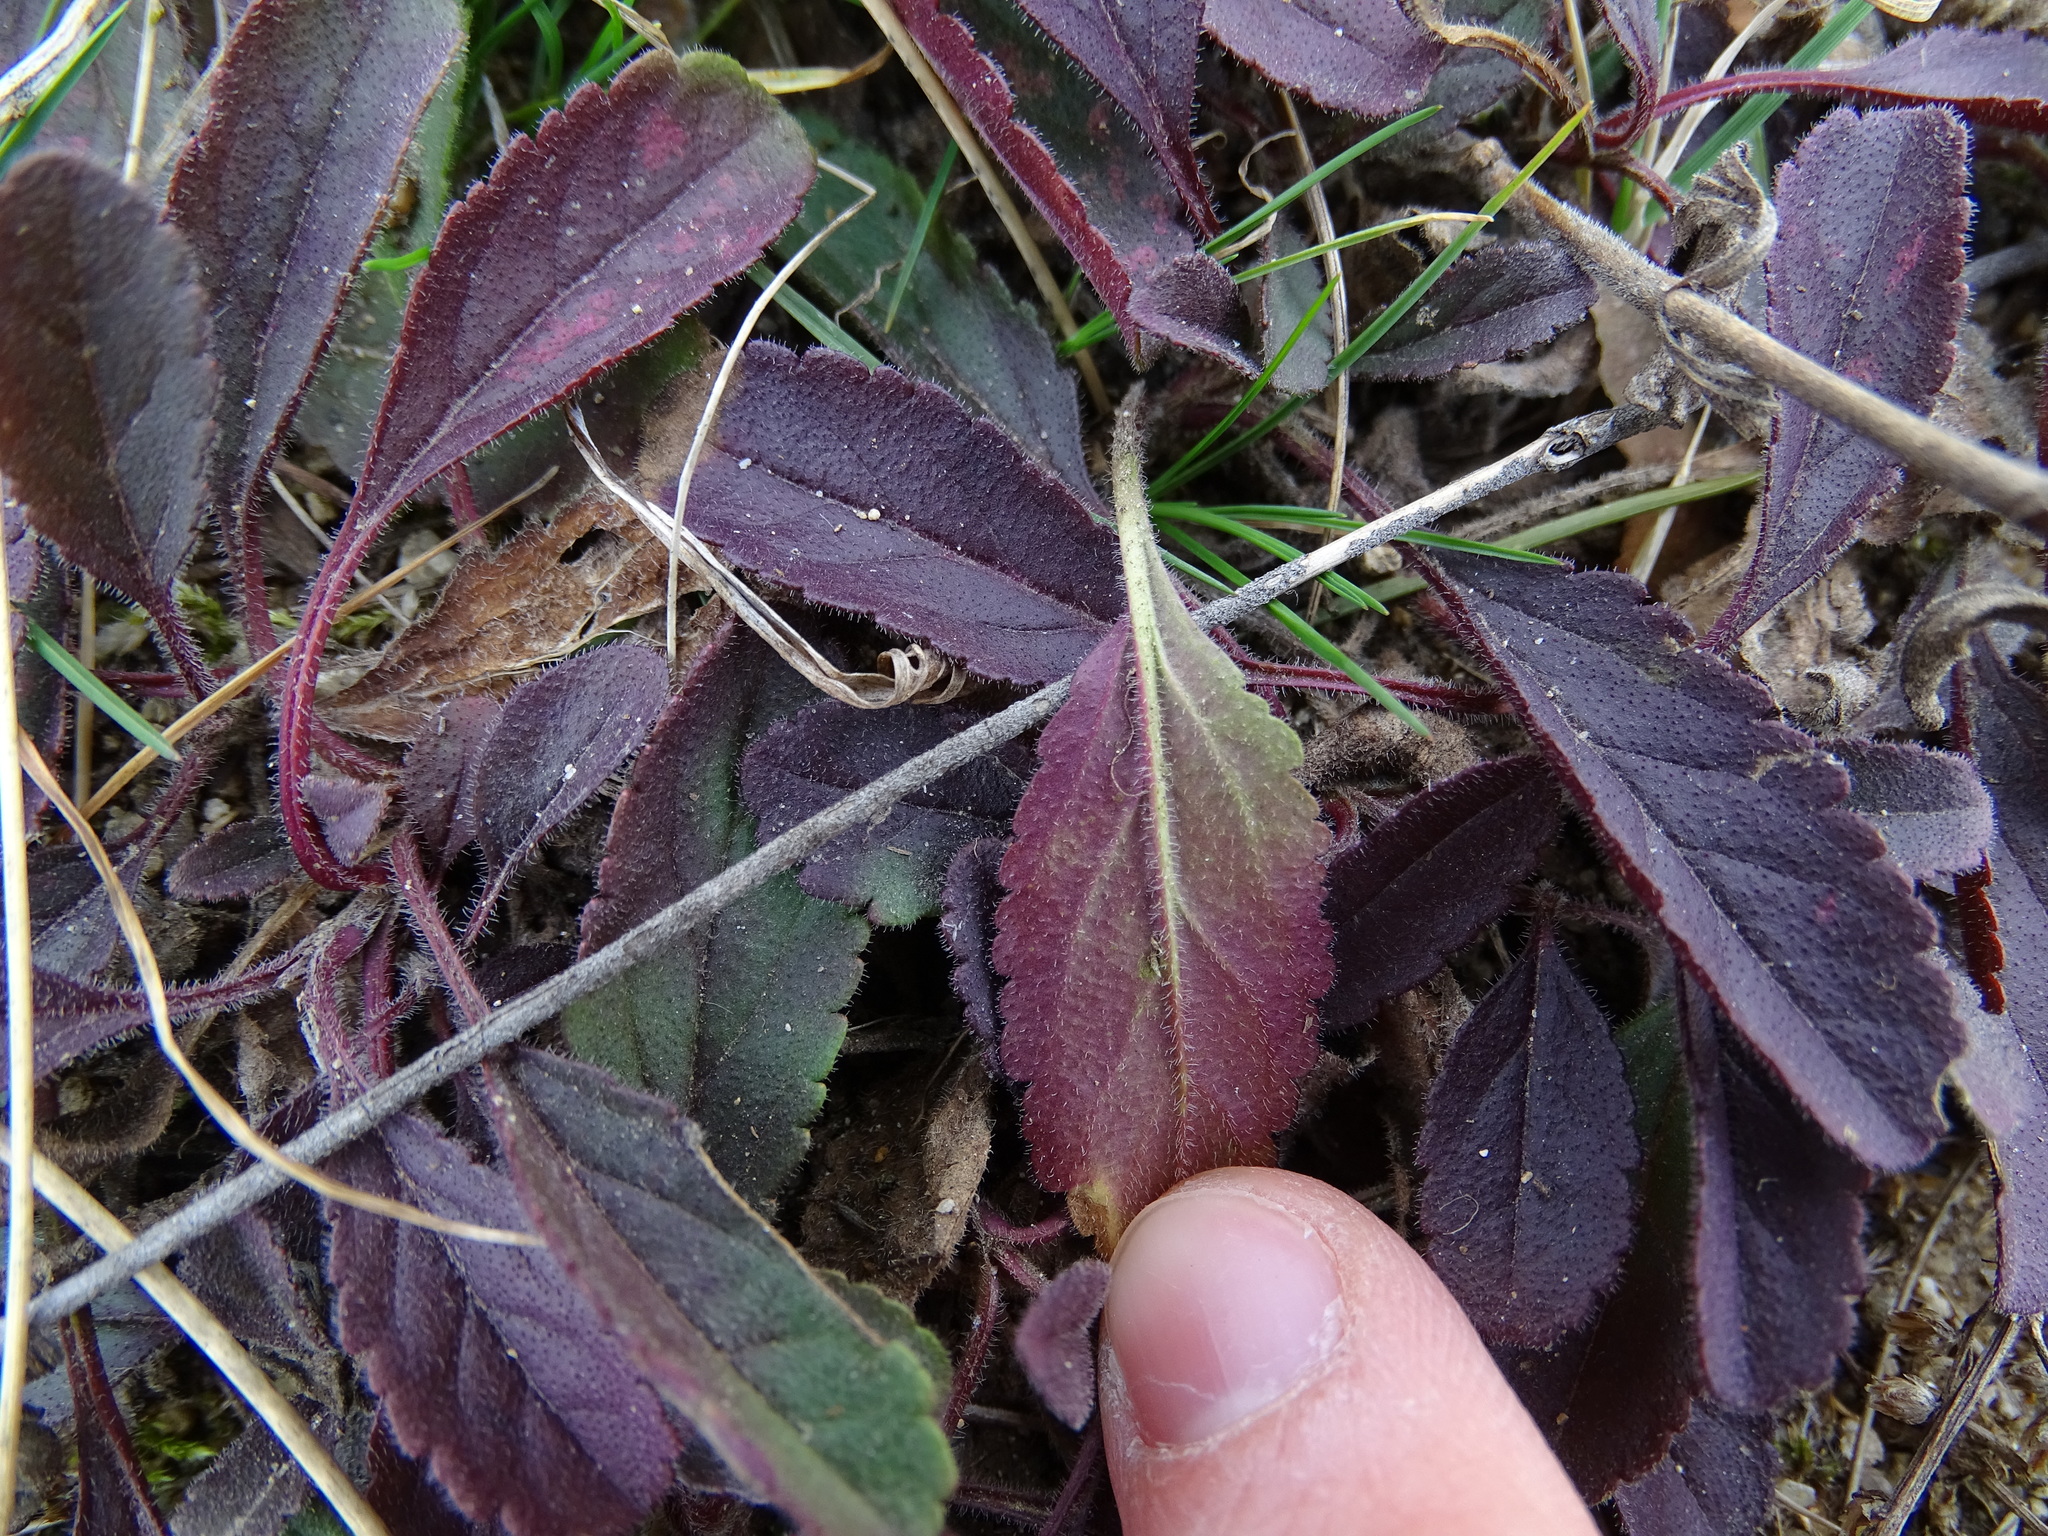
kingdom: Plantae
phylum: Tracheophyta
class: Magnoliopsida
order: Lamiales
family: Plantaginaceae
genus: Veronica
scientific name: Veronica spicata
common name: Spiked speedwell
